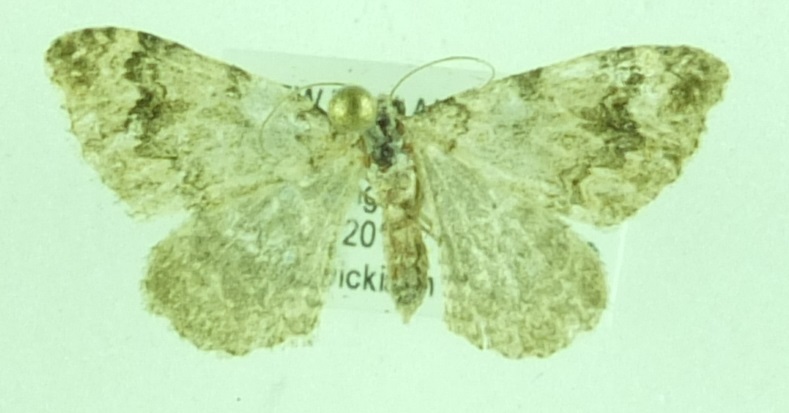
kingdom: Animalia
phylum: Arthropoda
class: Insecta
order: Lepidoptera
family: Geometridae
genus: Helastia
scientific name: Helastia cinerearia
